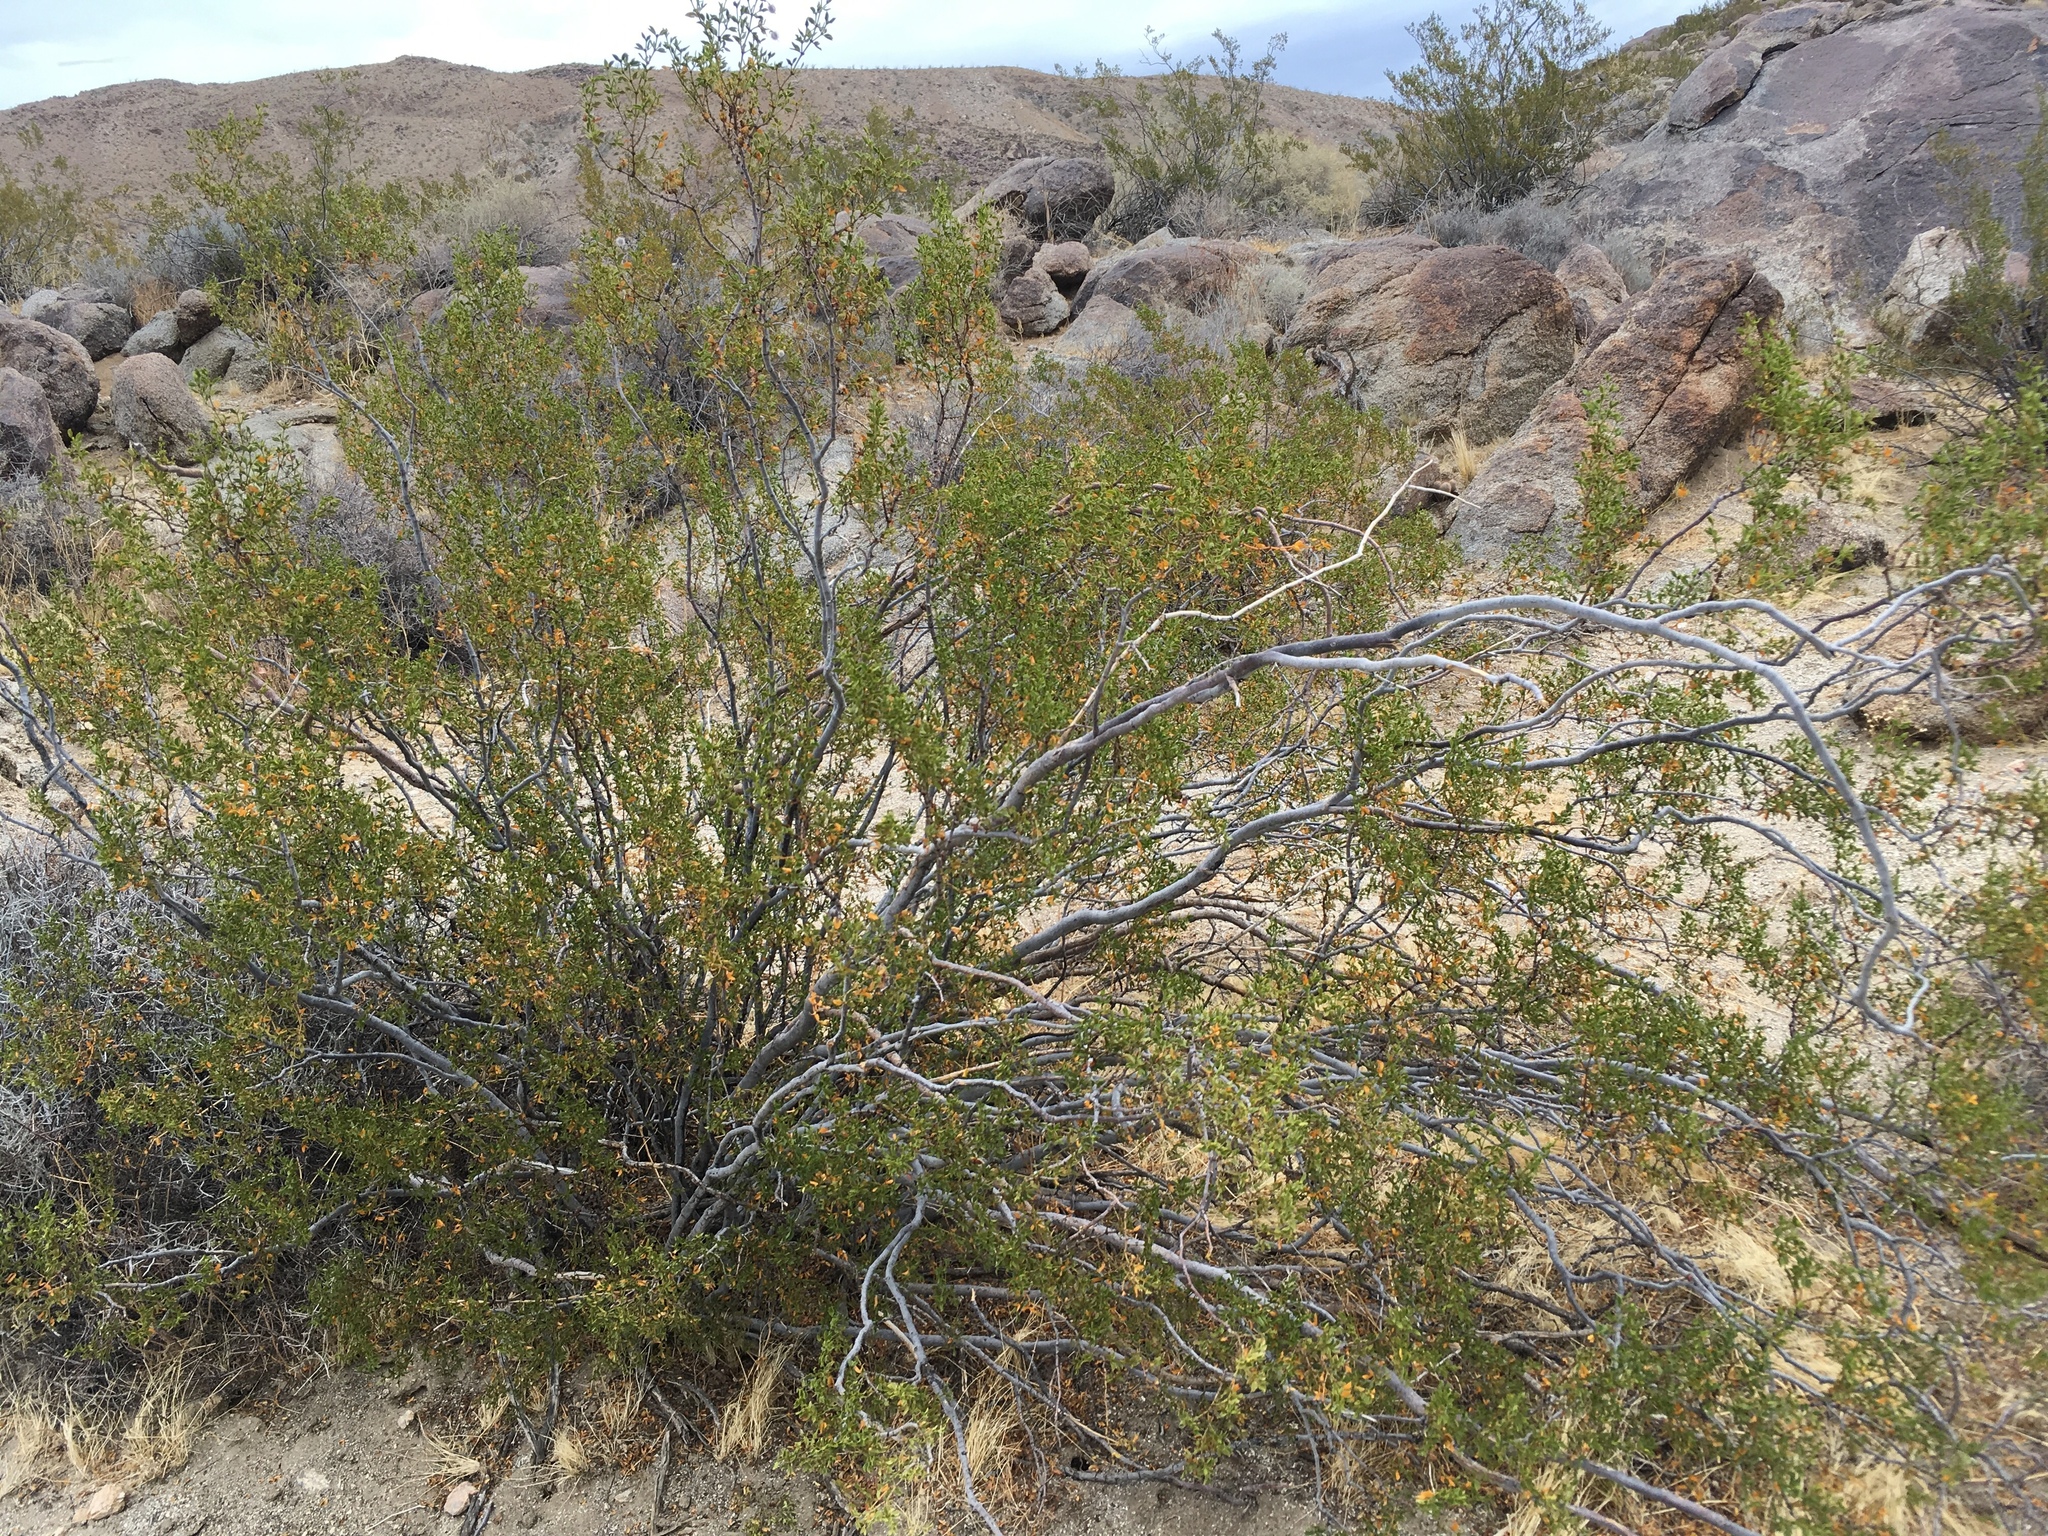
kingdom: Plantae
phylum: Tracheophyta
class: Magnoliopsida
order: Zygophyllales
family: Zygophyllaceae
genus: Larrea
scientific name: Larrea tridentata
